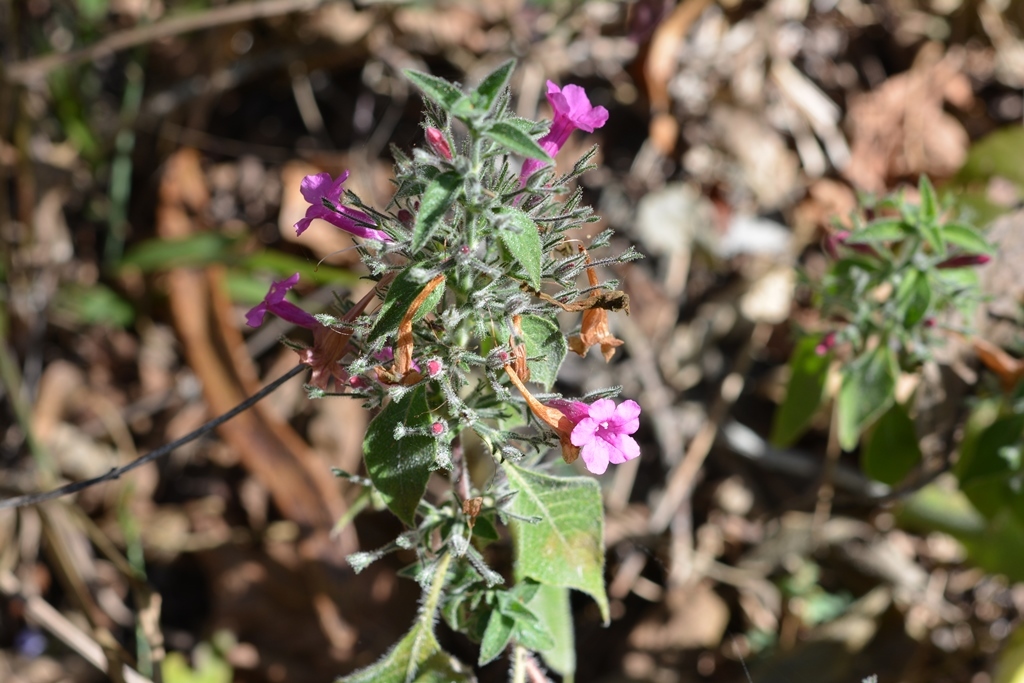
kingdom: Plantae
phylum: Tracheophyta
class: Magnoliopsida
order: Lamiales
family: Acanthaceae
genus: Ruellia
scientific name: Ruellia inundata
